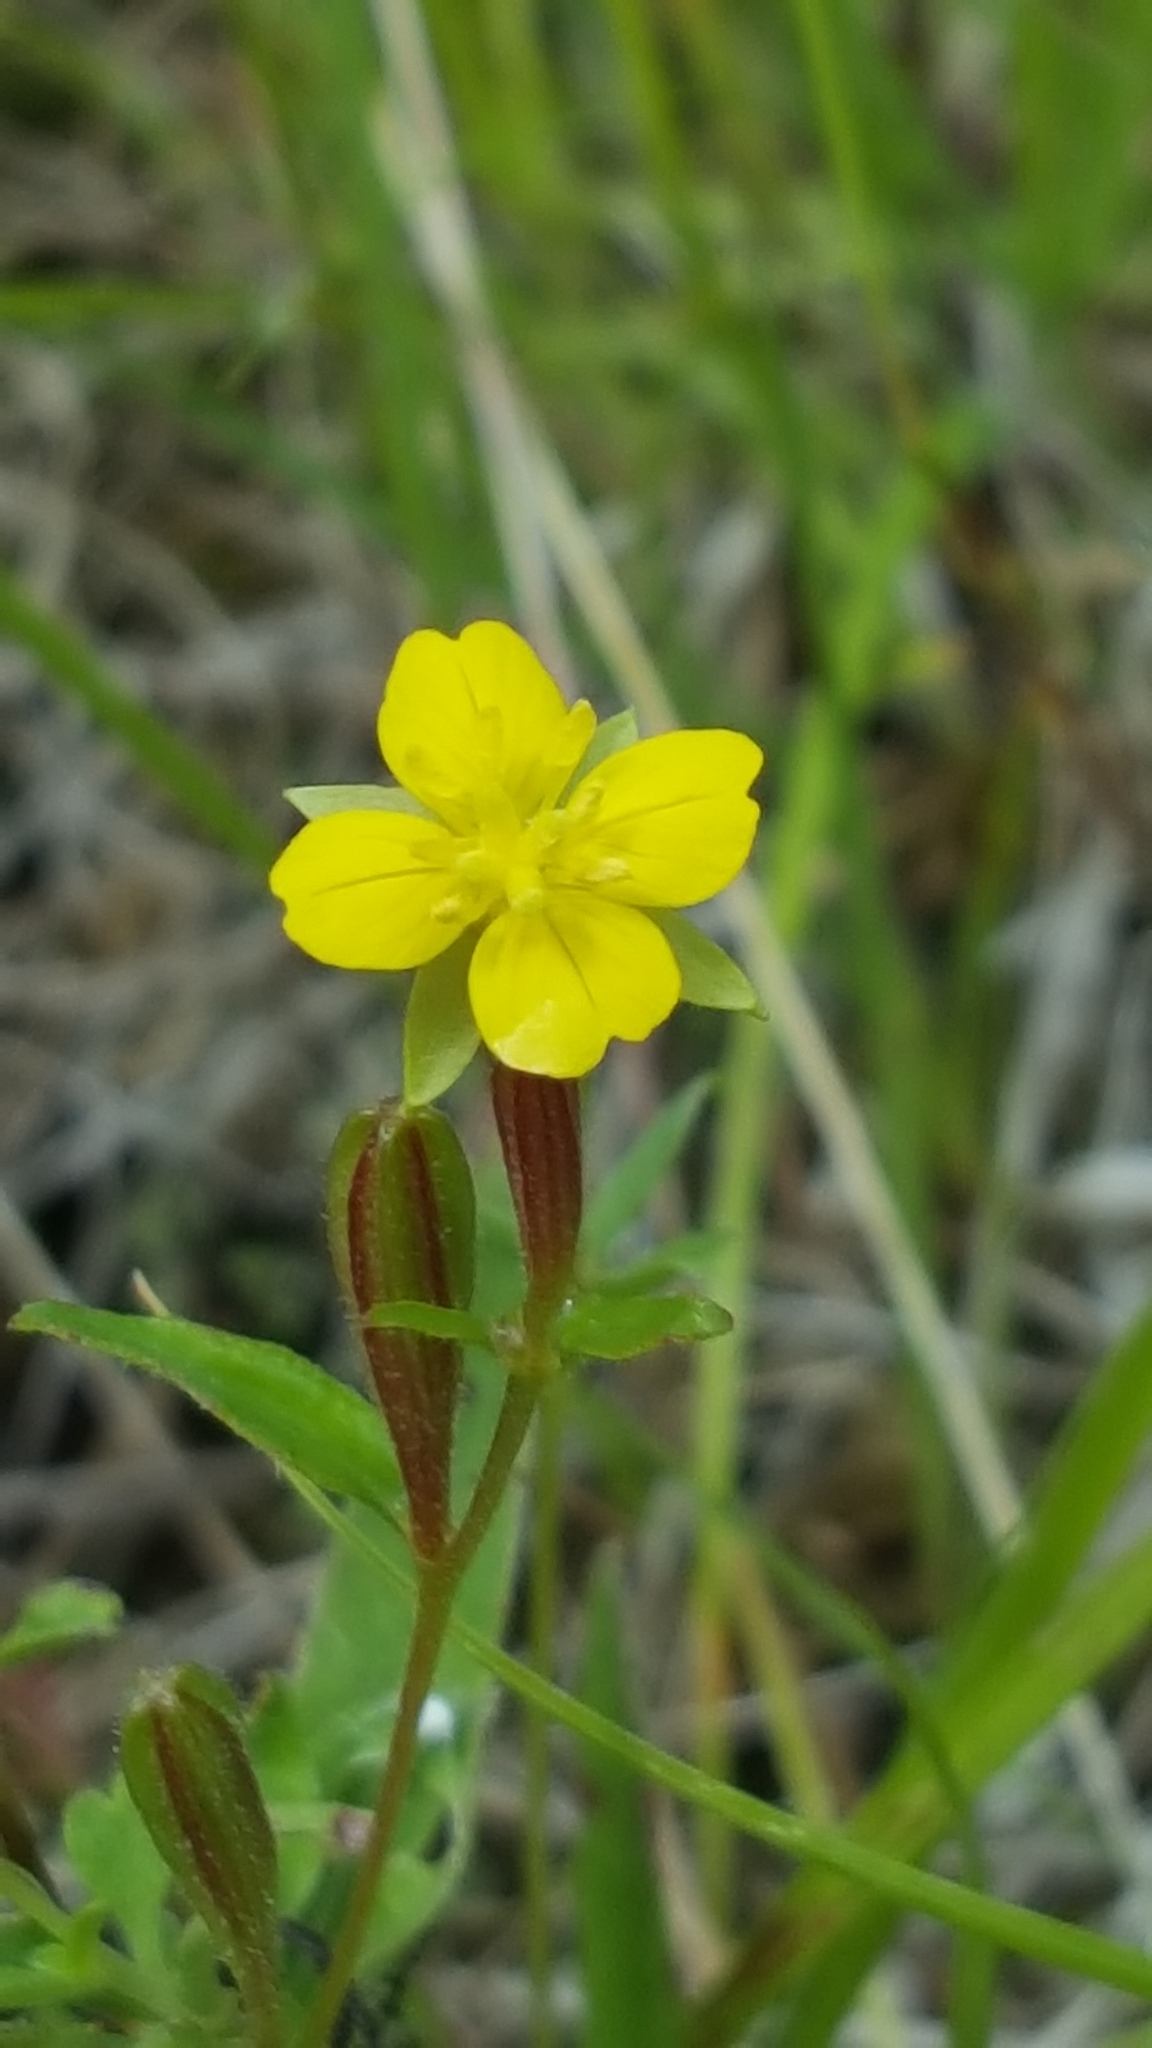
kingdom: Plantae
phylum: Tracheophyta
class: Magnoliopsida
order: Myrtales
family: Onagraceae
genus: Oenothera
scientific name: Oenothera perennis
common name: Small sundrops
